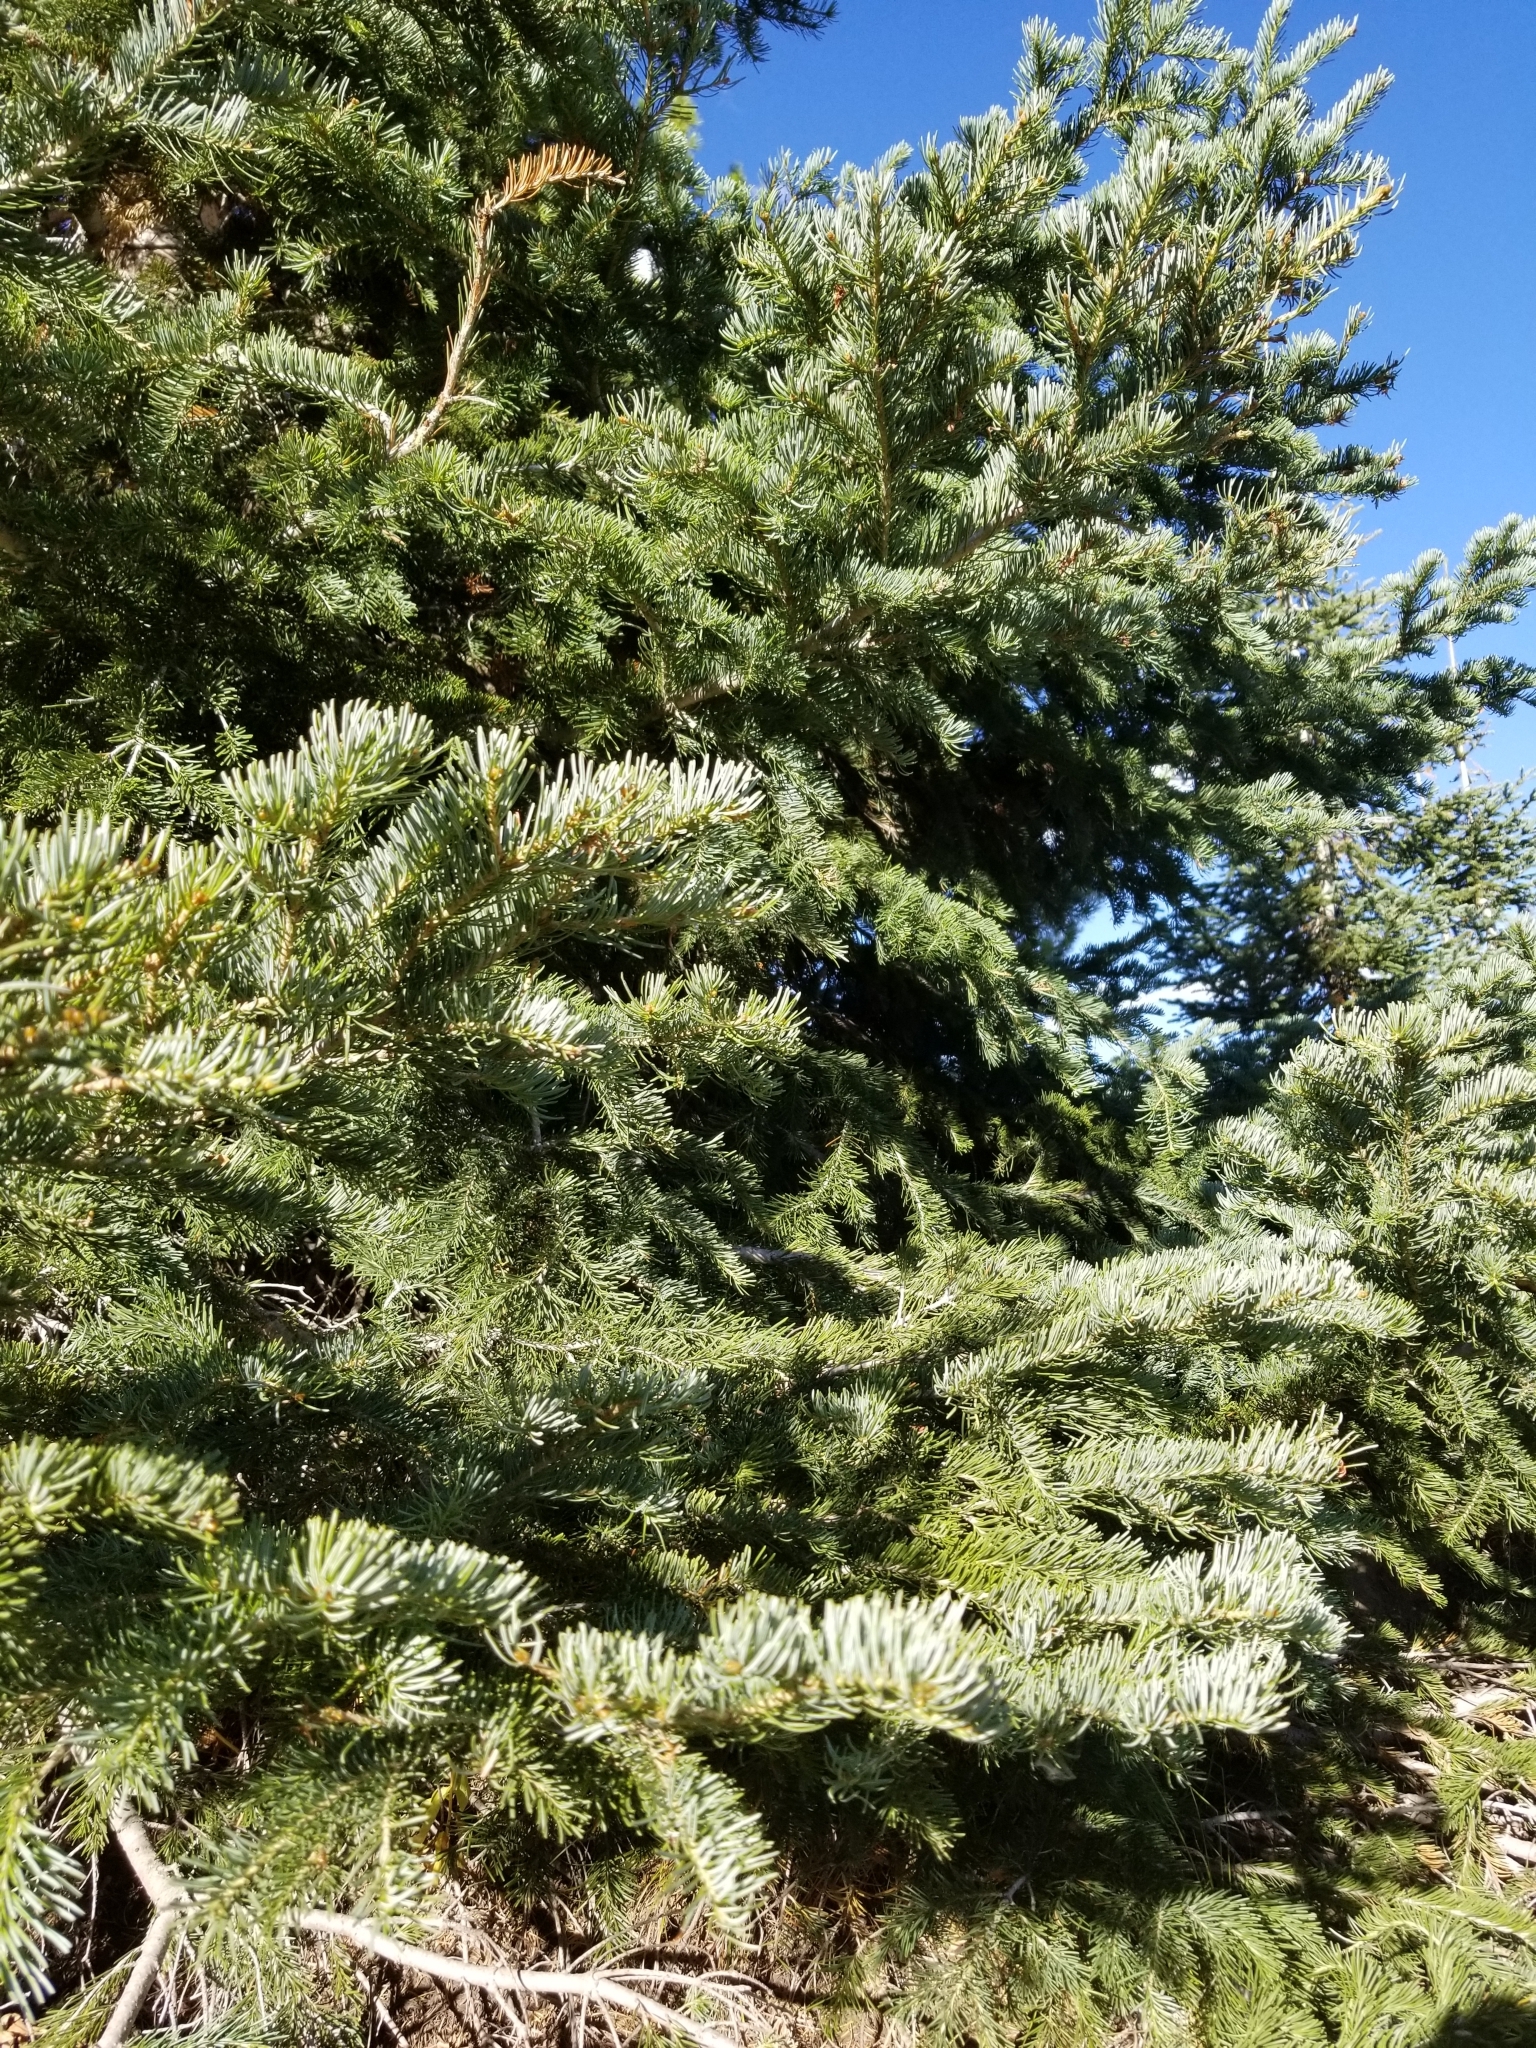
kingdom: Plantae
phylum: Tracheophyta
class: Pinopsida
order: Pinales
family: Pinaceae
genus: Abies
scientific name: Abies lasiocarpa
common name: Subalpine fir
